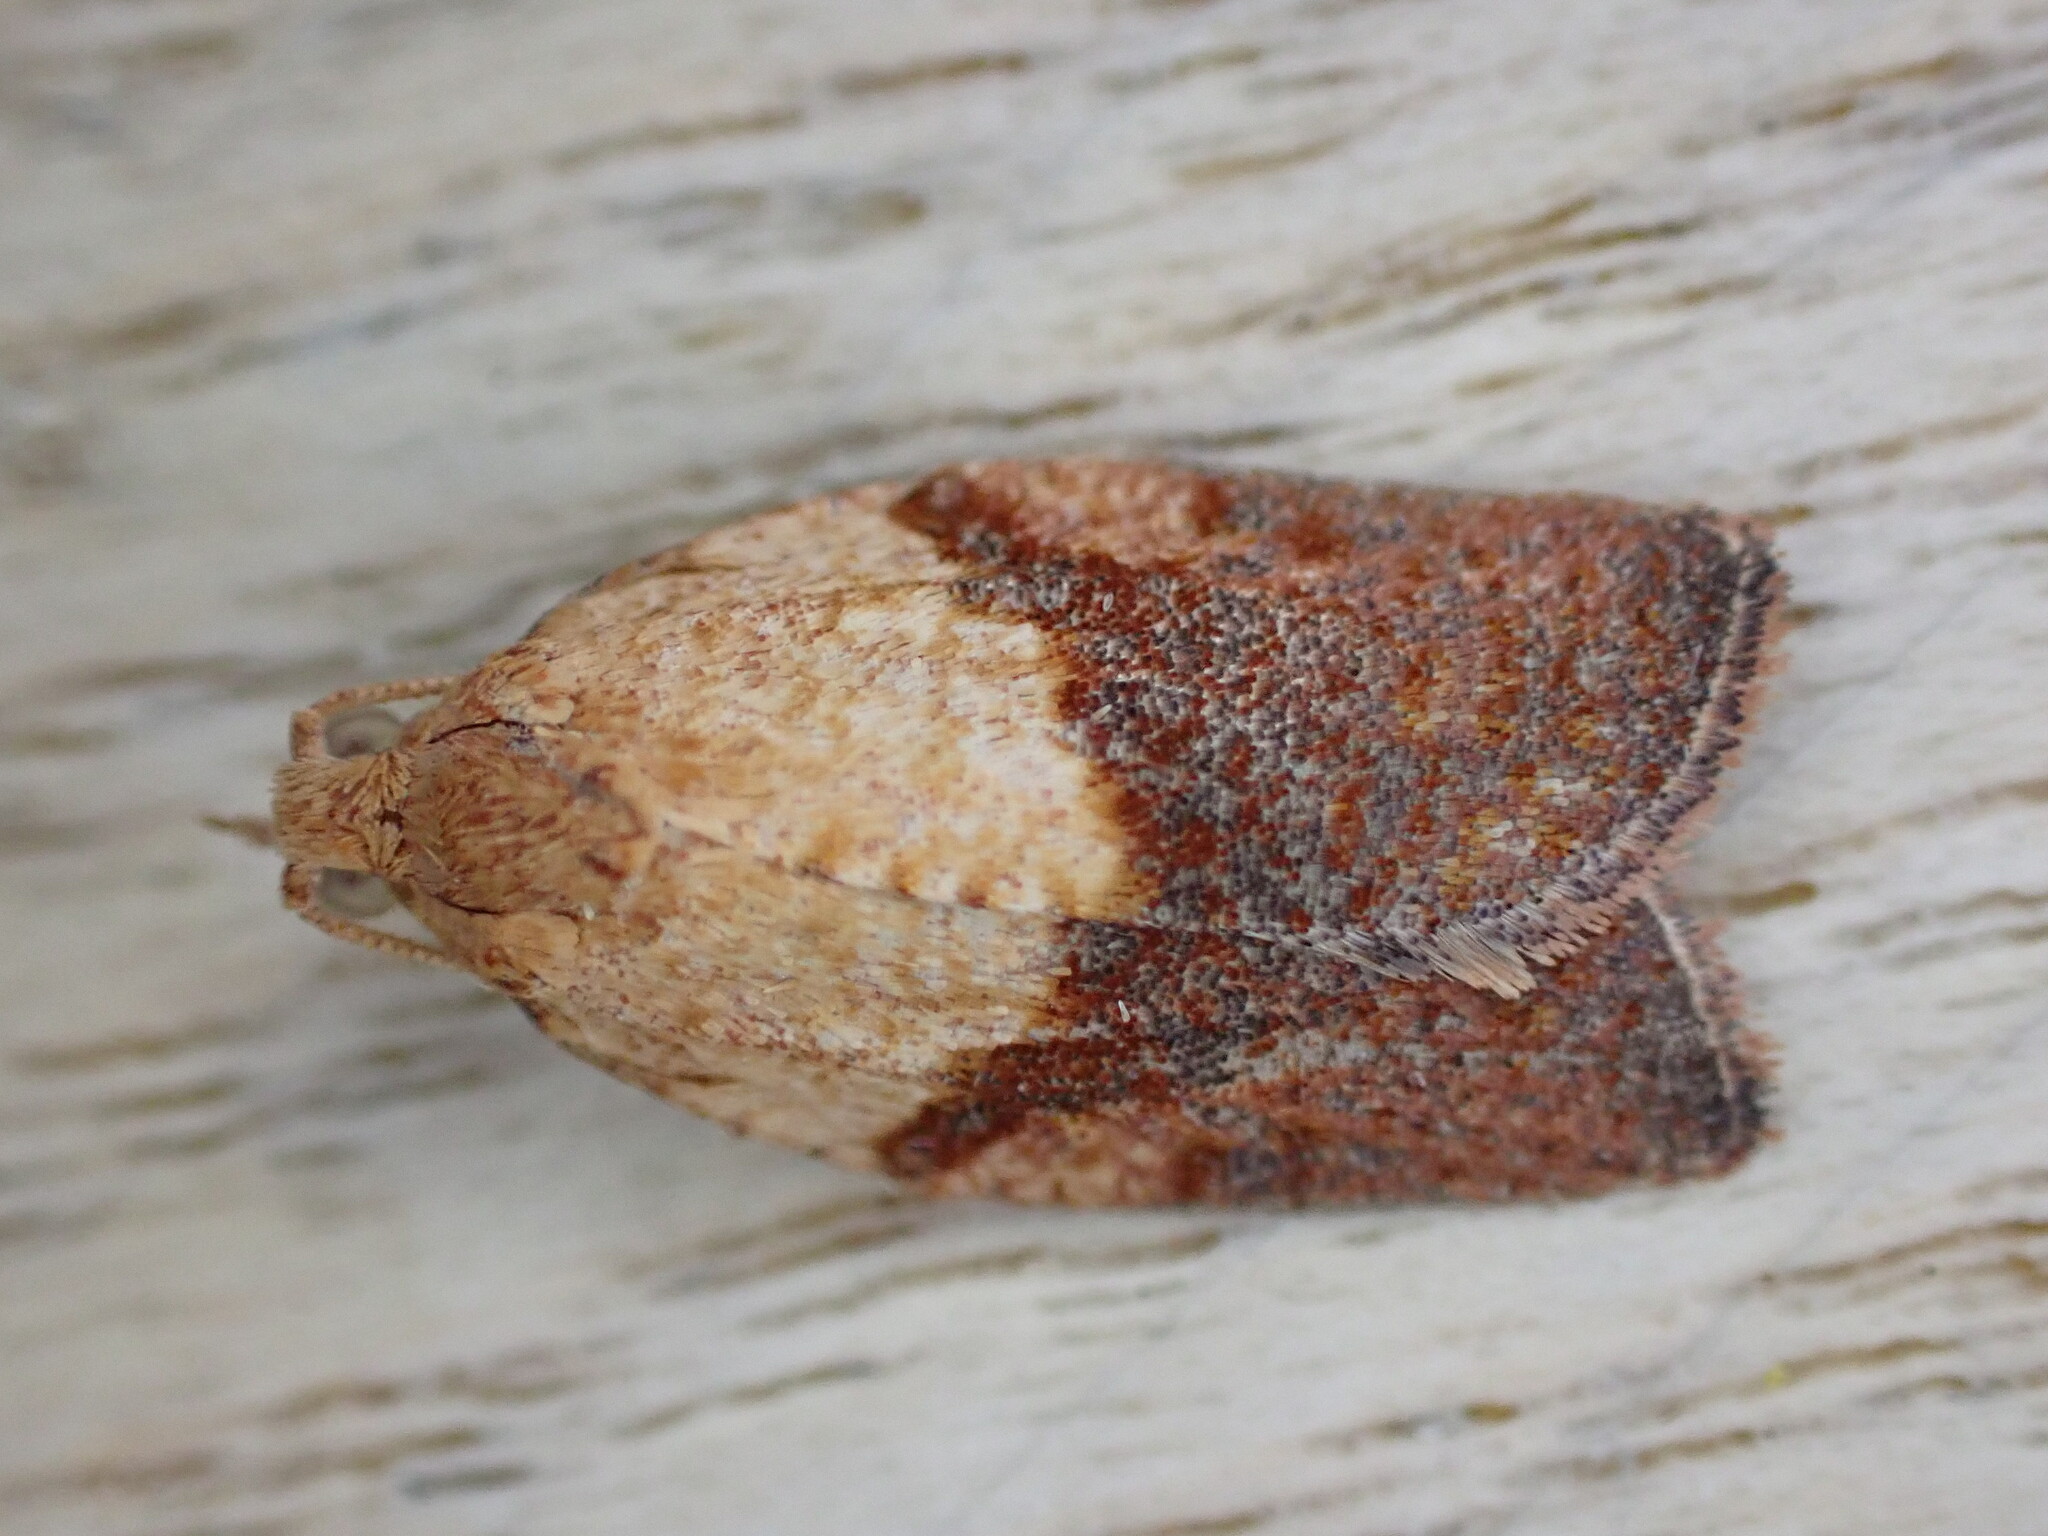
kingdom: Animalia
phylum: Arthropoda
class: Insecta
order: Lepidoptera
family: Tortricidae
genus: Epiphyas
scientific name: Epiphyas postvittana
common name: Light brown apple moth
